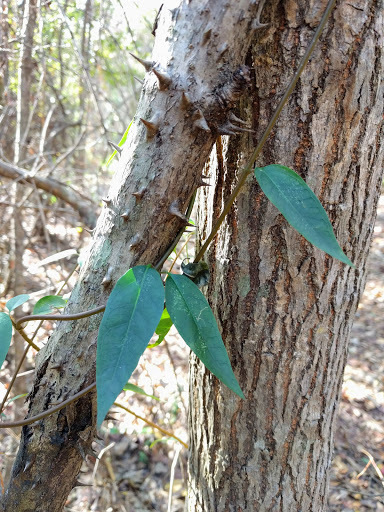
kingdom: Plantae
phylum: Tracheophyta
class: Magnoliopsida
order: Gentianales
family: Gelsemiaceae
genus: Gelsemium
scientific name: Gelsemium sempervirens
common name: Carolina-jasmine
